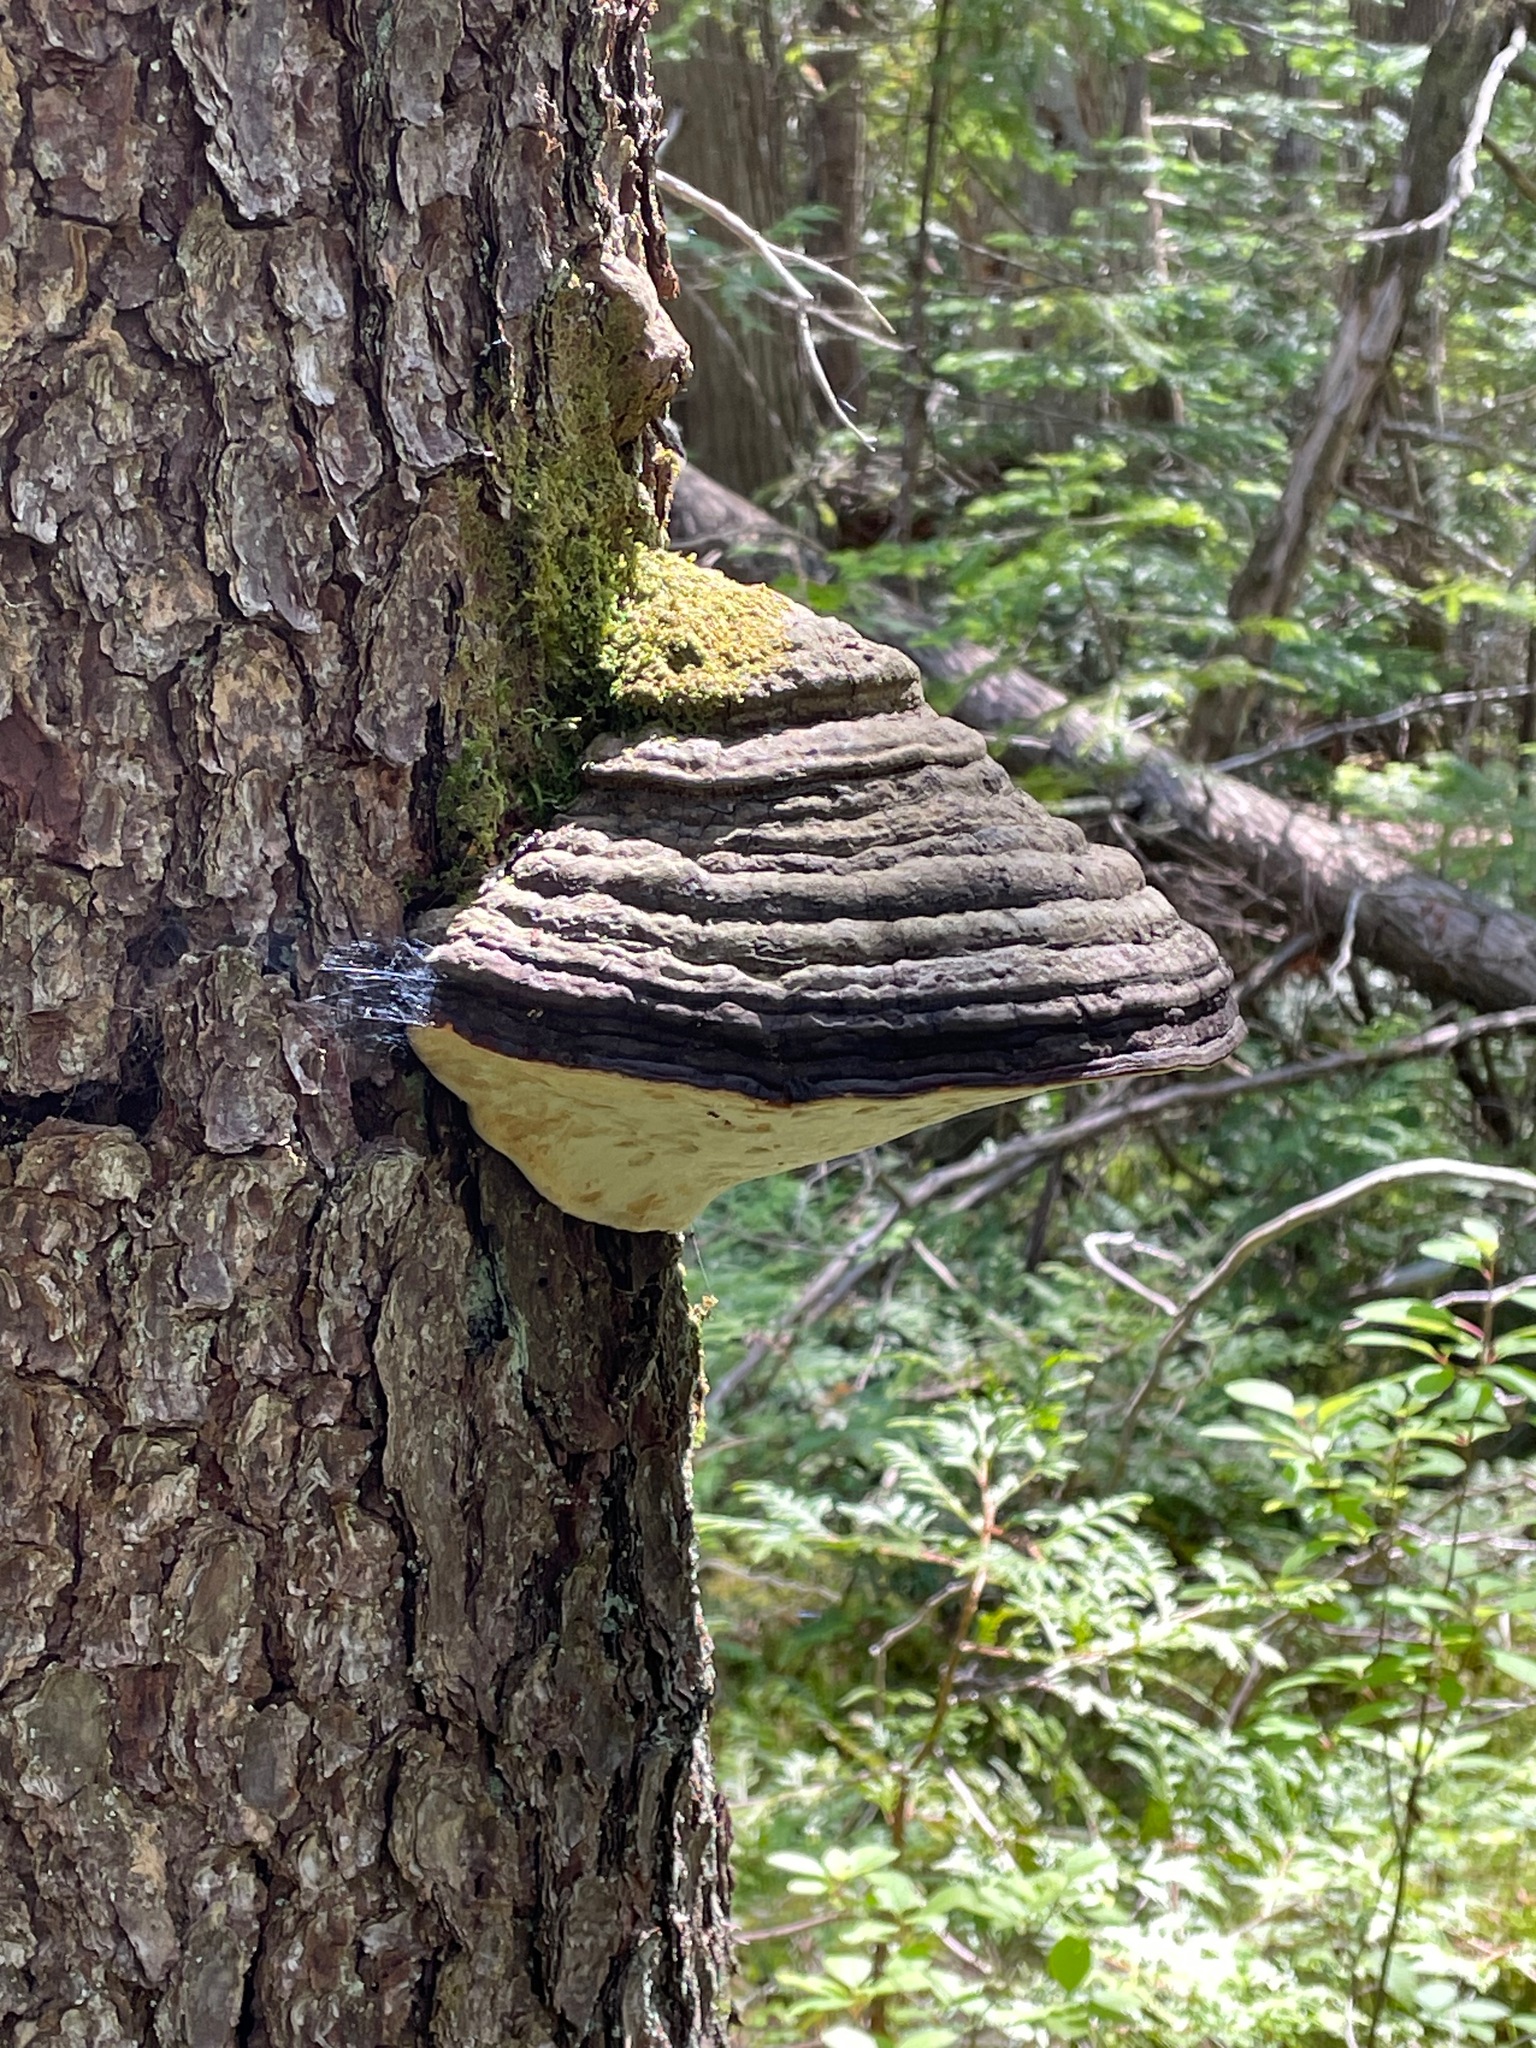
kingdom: Fungi
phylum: Basidiomycota
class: Agaricomycetes
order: Polyporales
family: Fomitopsidaceae
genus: Fomitopsis
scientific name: Fomitopsis mounceae
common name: Northern red belt
